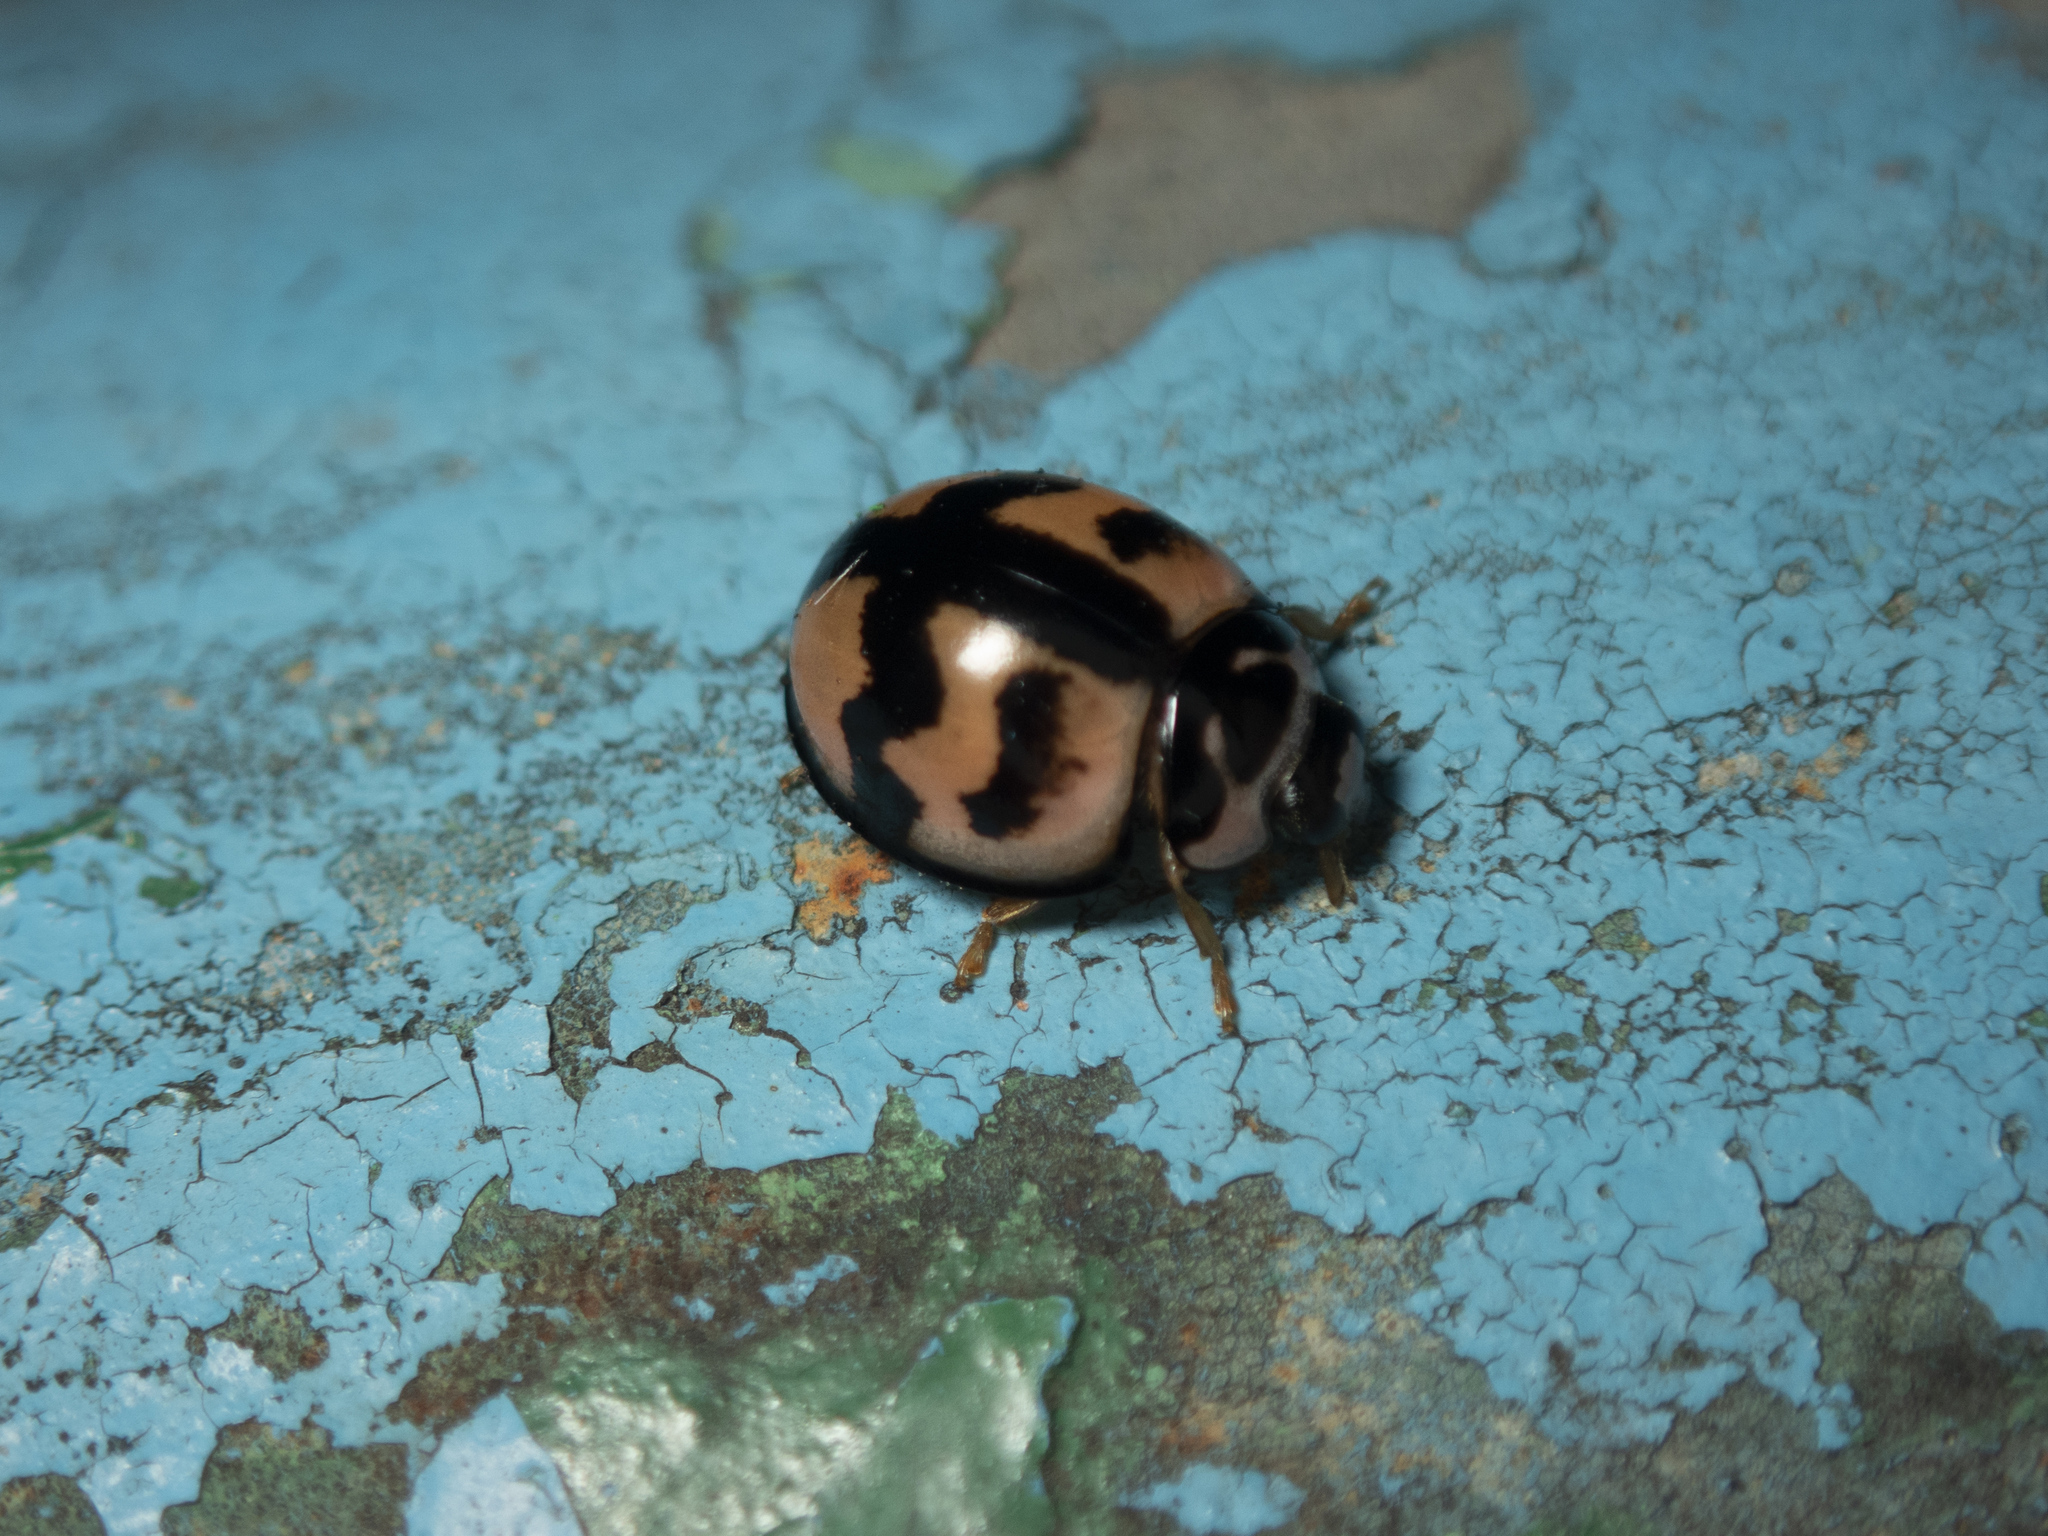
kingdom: Animalia
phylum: Arthropoda
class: Insecta
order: Coleoptera
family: Coccinellidae
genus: Cheilomenes
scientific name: Cheilomenes sexmaculata
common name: Ladybird beetle
